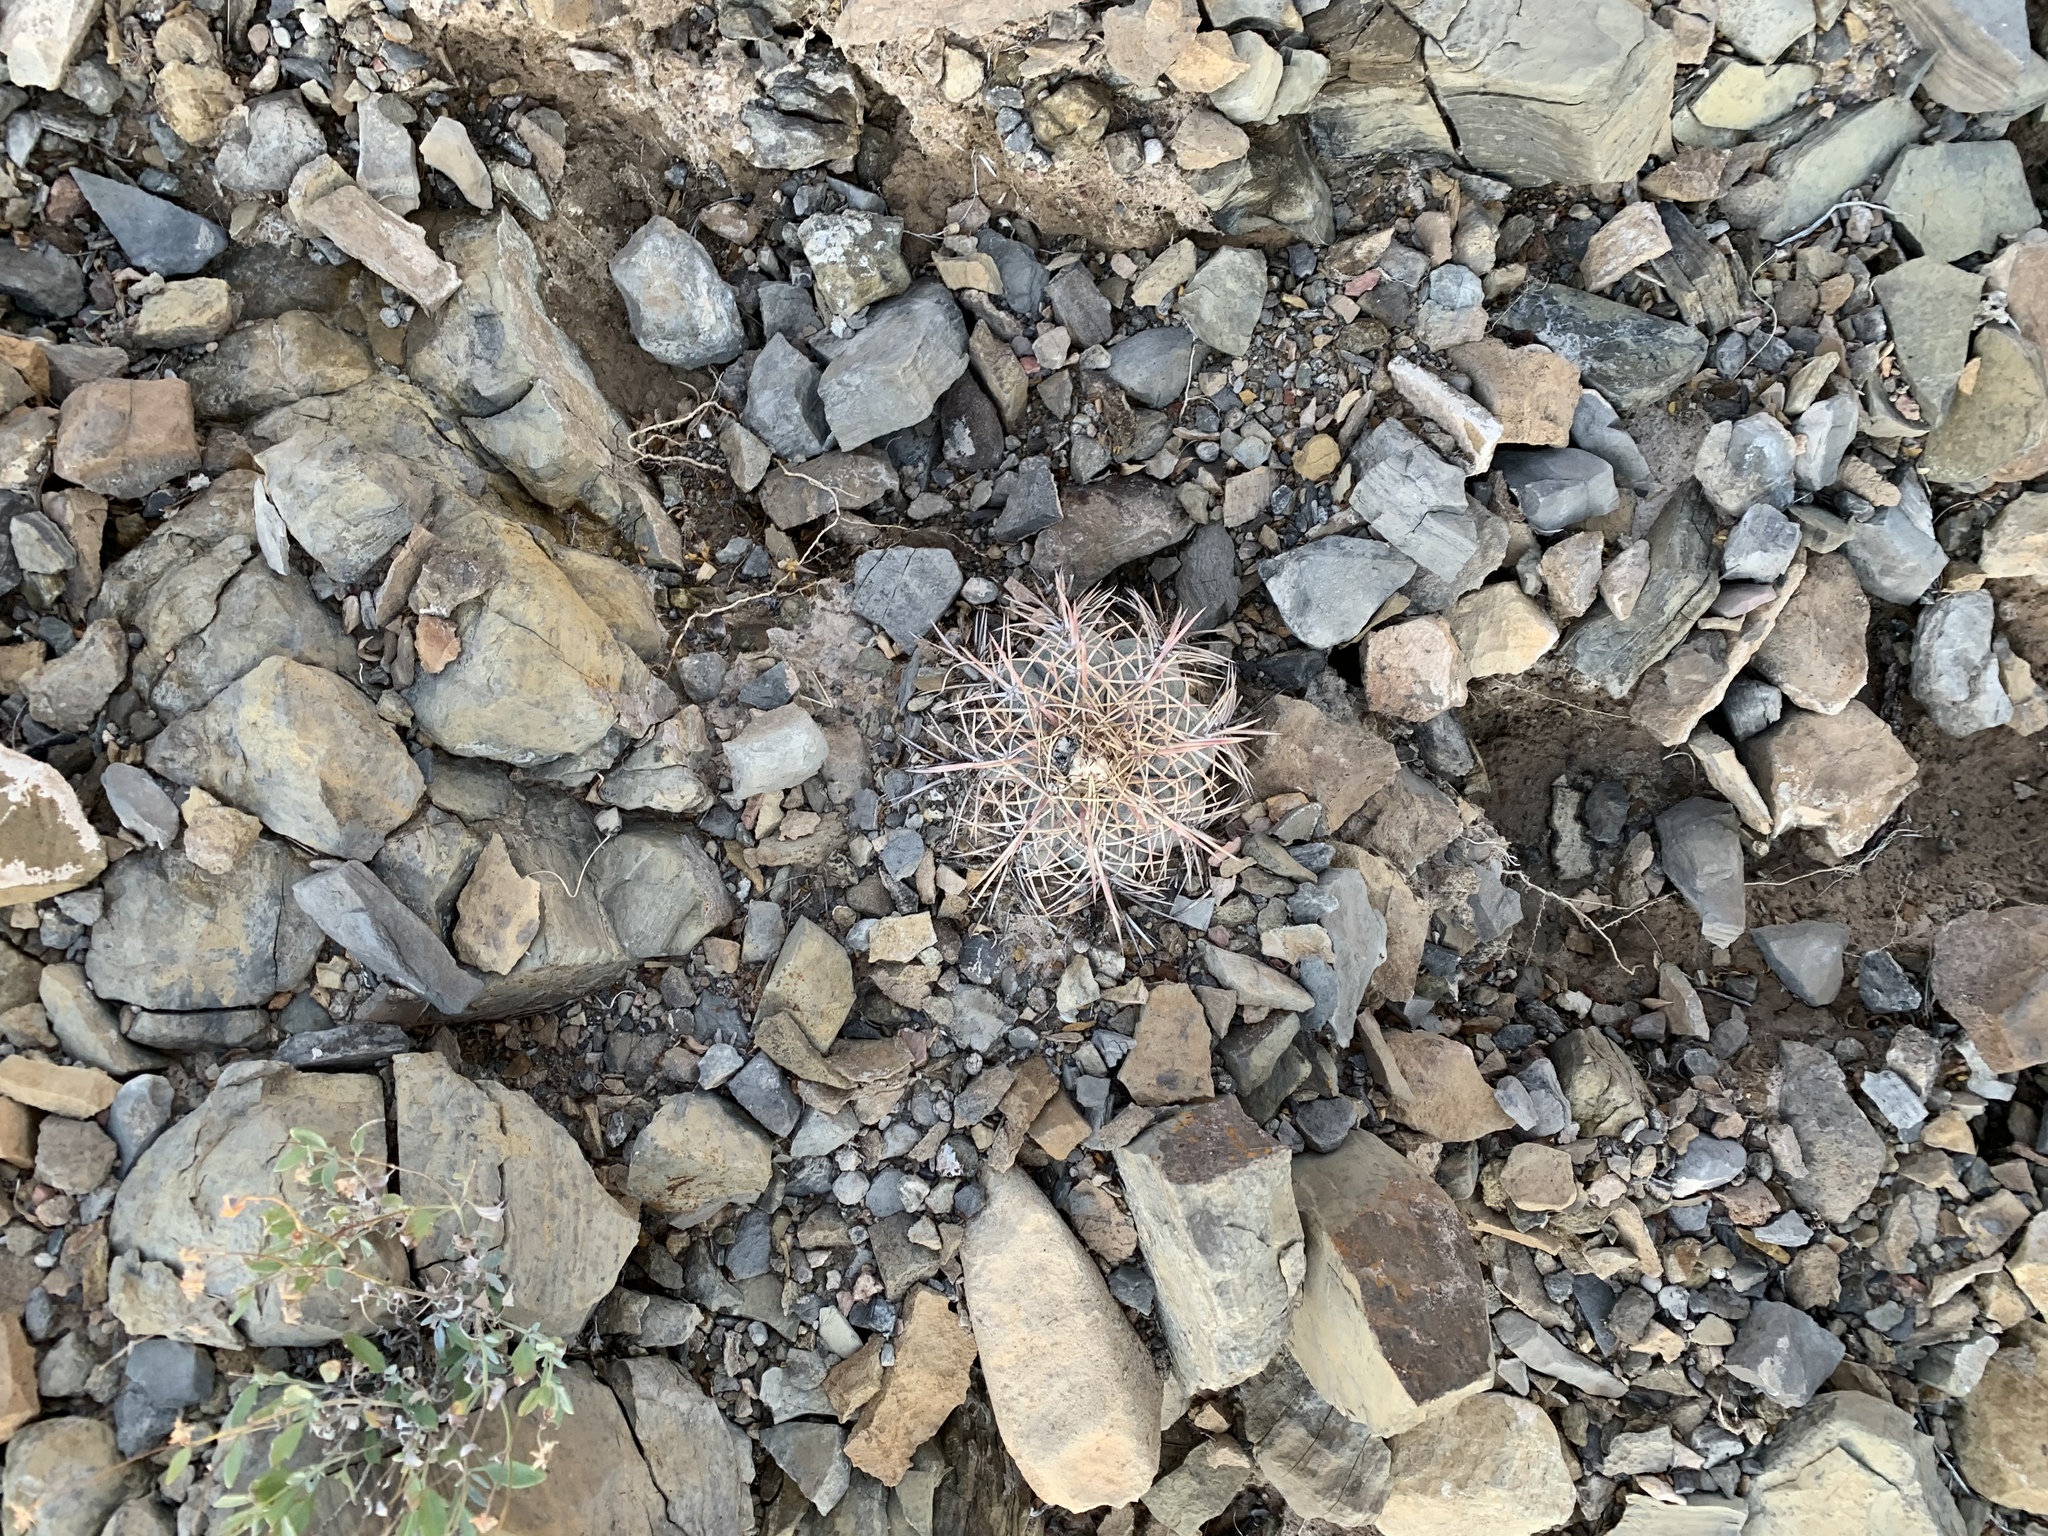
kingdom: Plantae
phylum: Tracheophyta
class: Magnoliopsida
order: Caryophyllales
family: Cactaceae
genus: Echinocactus
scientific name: Echinocactus horizonthalonius
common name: Devilshead
